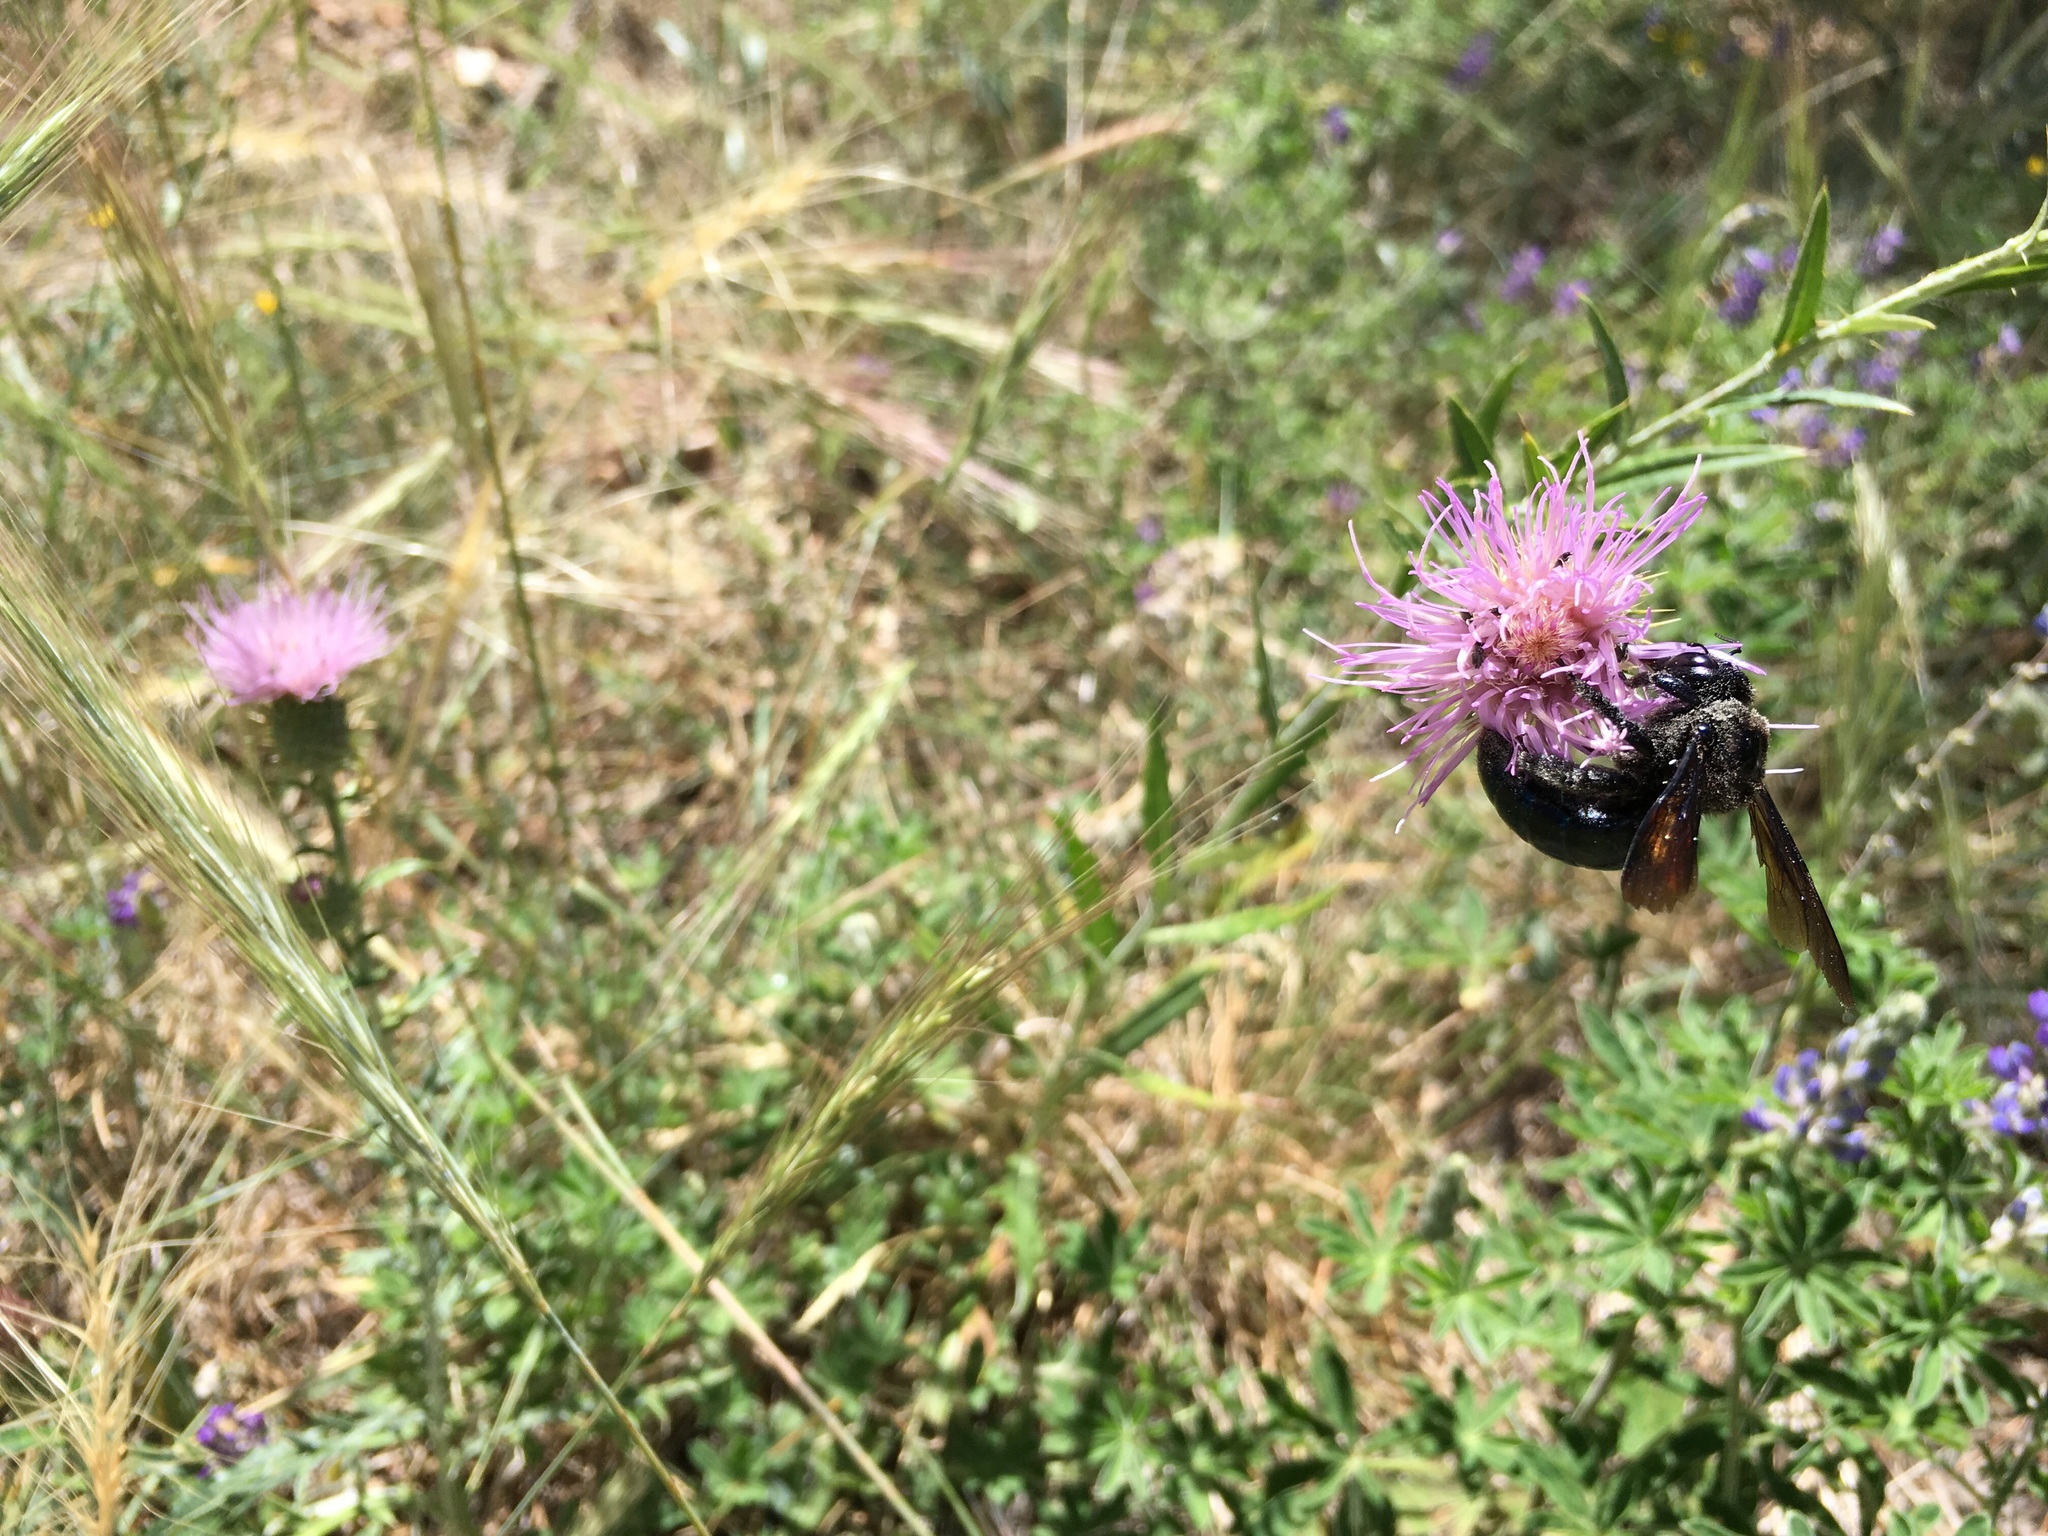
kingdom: Animalia
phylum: Arthropoda
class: Insecta
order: Hymenoptera
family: Apidae
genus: Xylocopa
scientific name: Xylocopa californica
